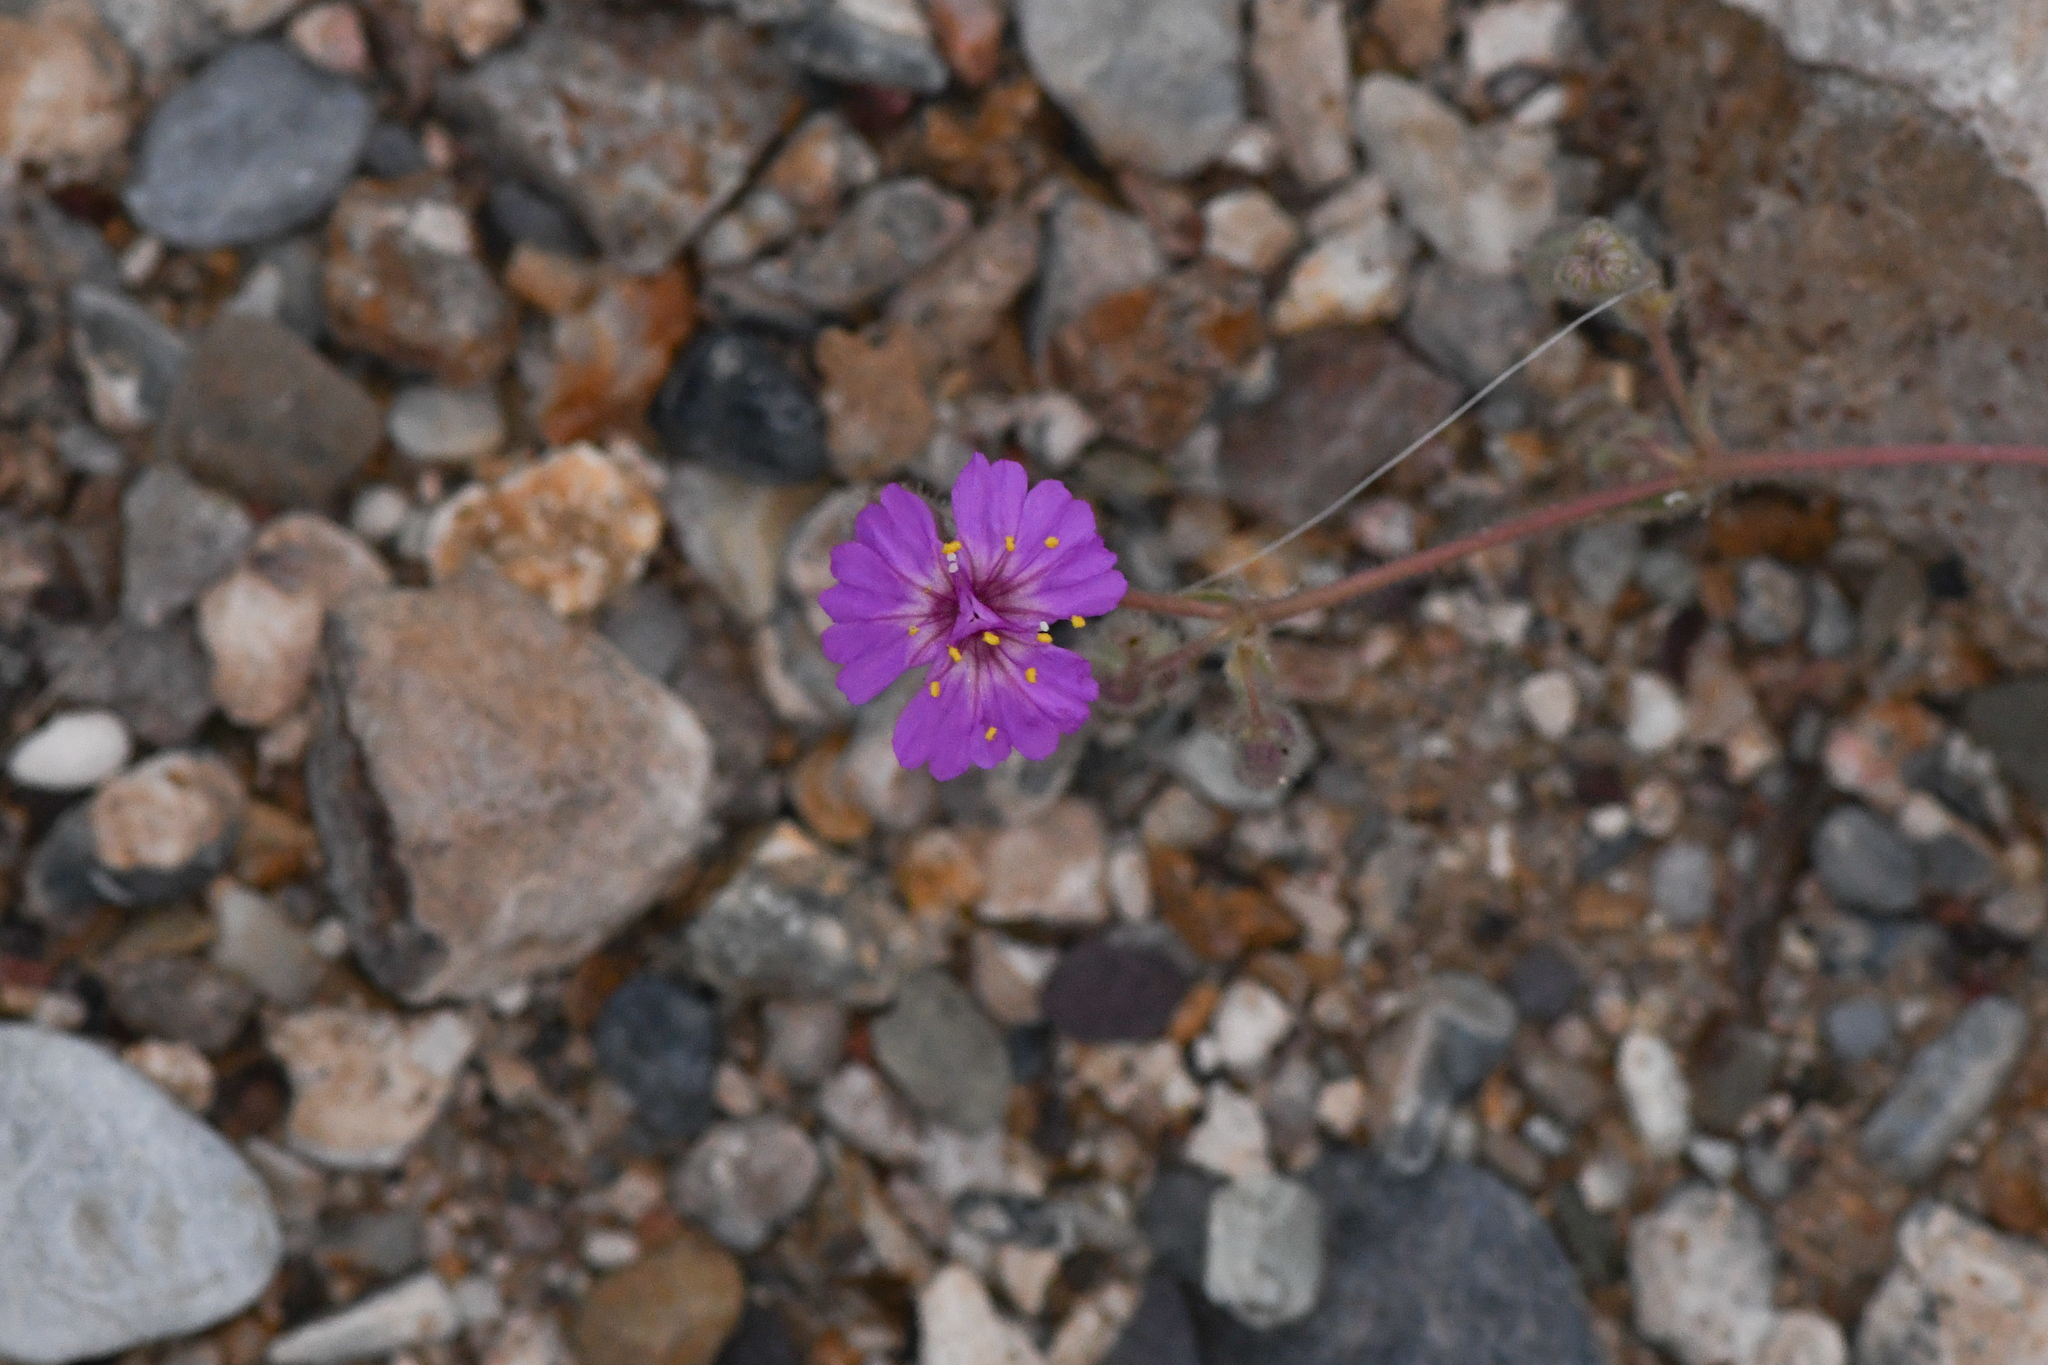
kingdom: Plantae
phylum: Tracheophyta
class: Magnoliopsida
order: Caryophyllales
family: Nyctaginaceae
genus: Allionia
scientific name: Allionia incarnata
